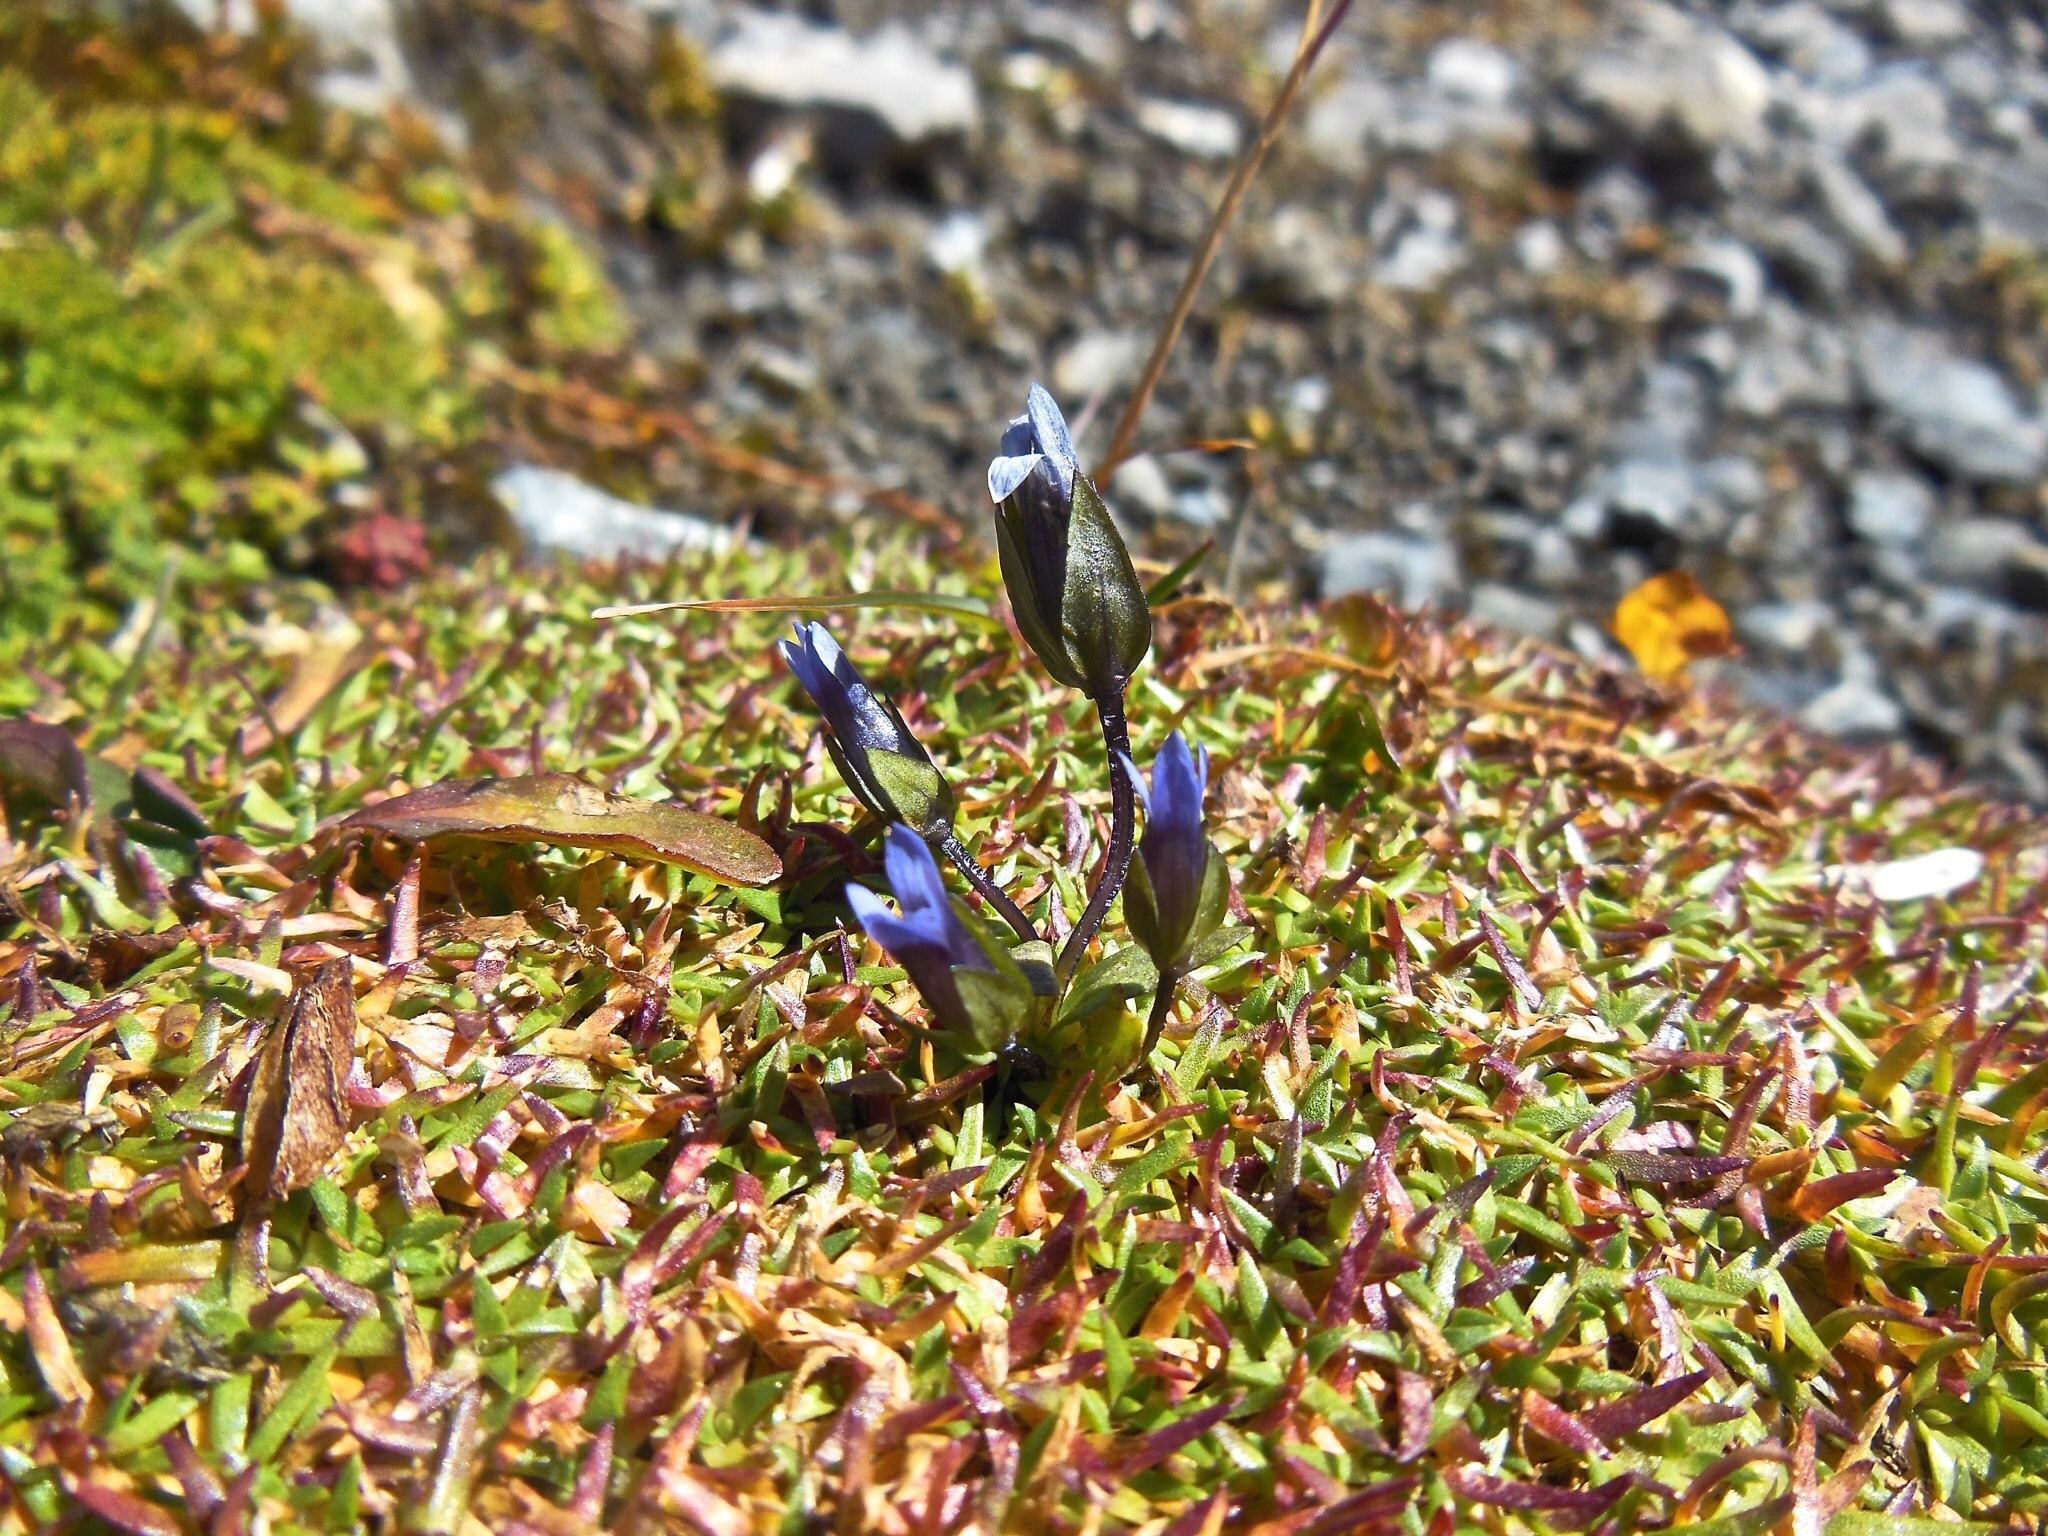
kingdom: Plantae
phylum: Tracheophyta
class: Magnoliopsida
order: Gentianales
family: Gentianaceae
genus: Comastoma
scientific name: Comastoma tenellum
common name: Dane's dwarf gentian
